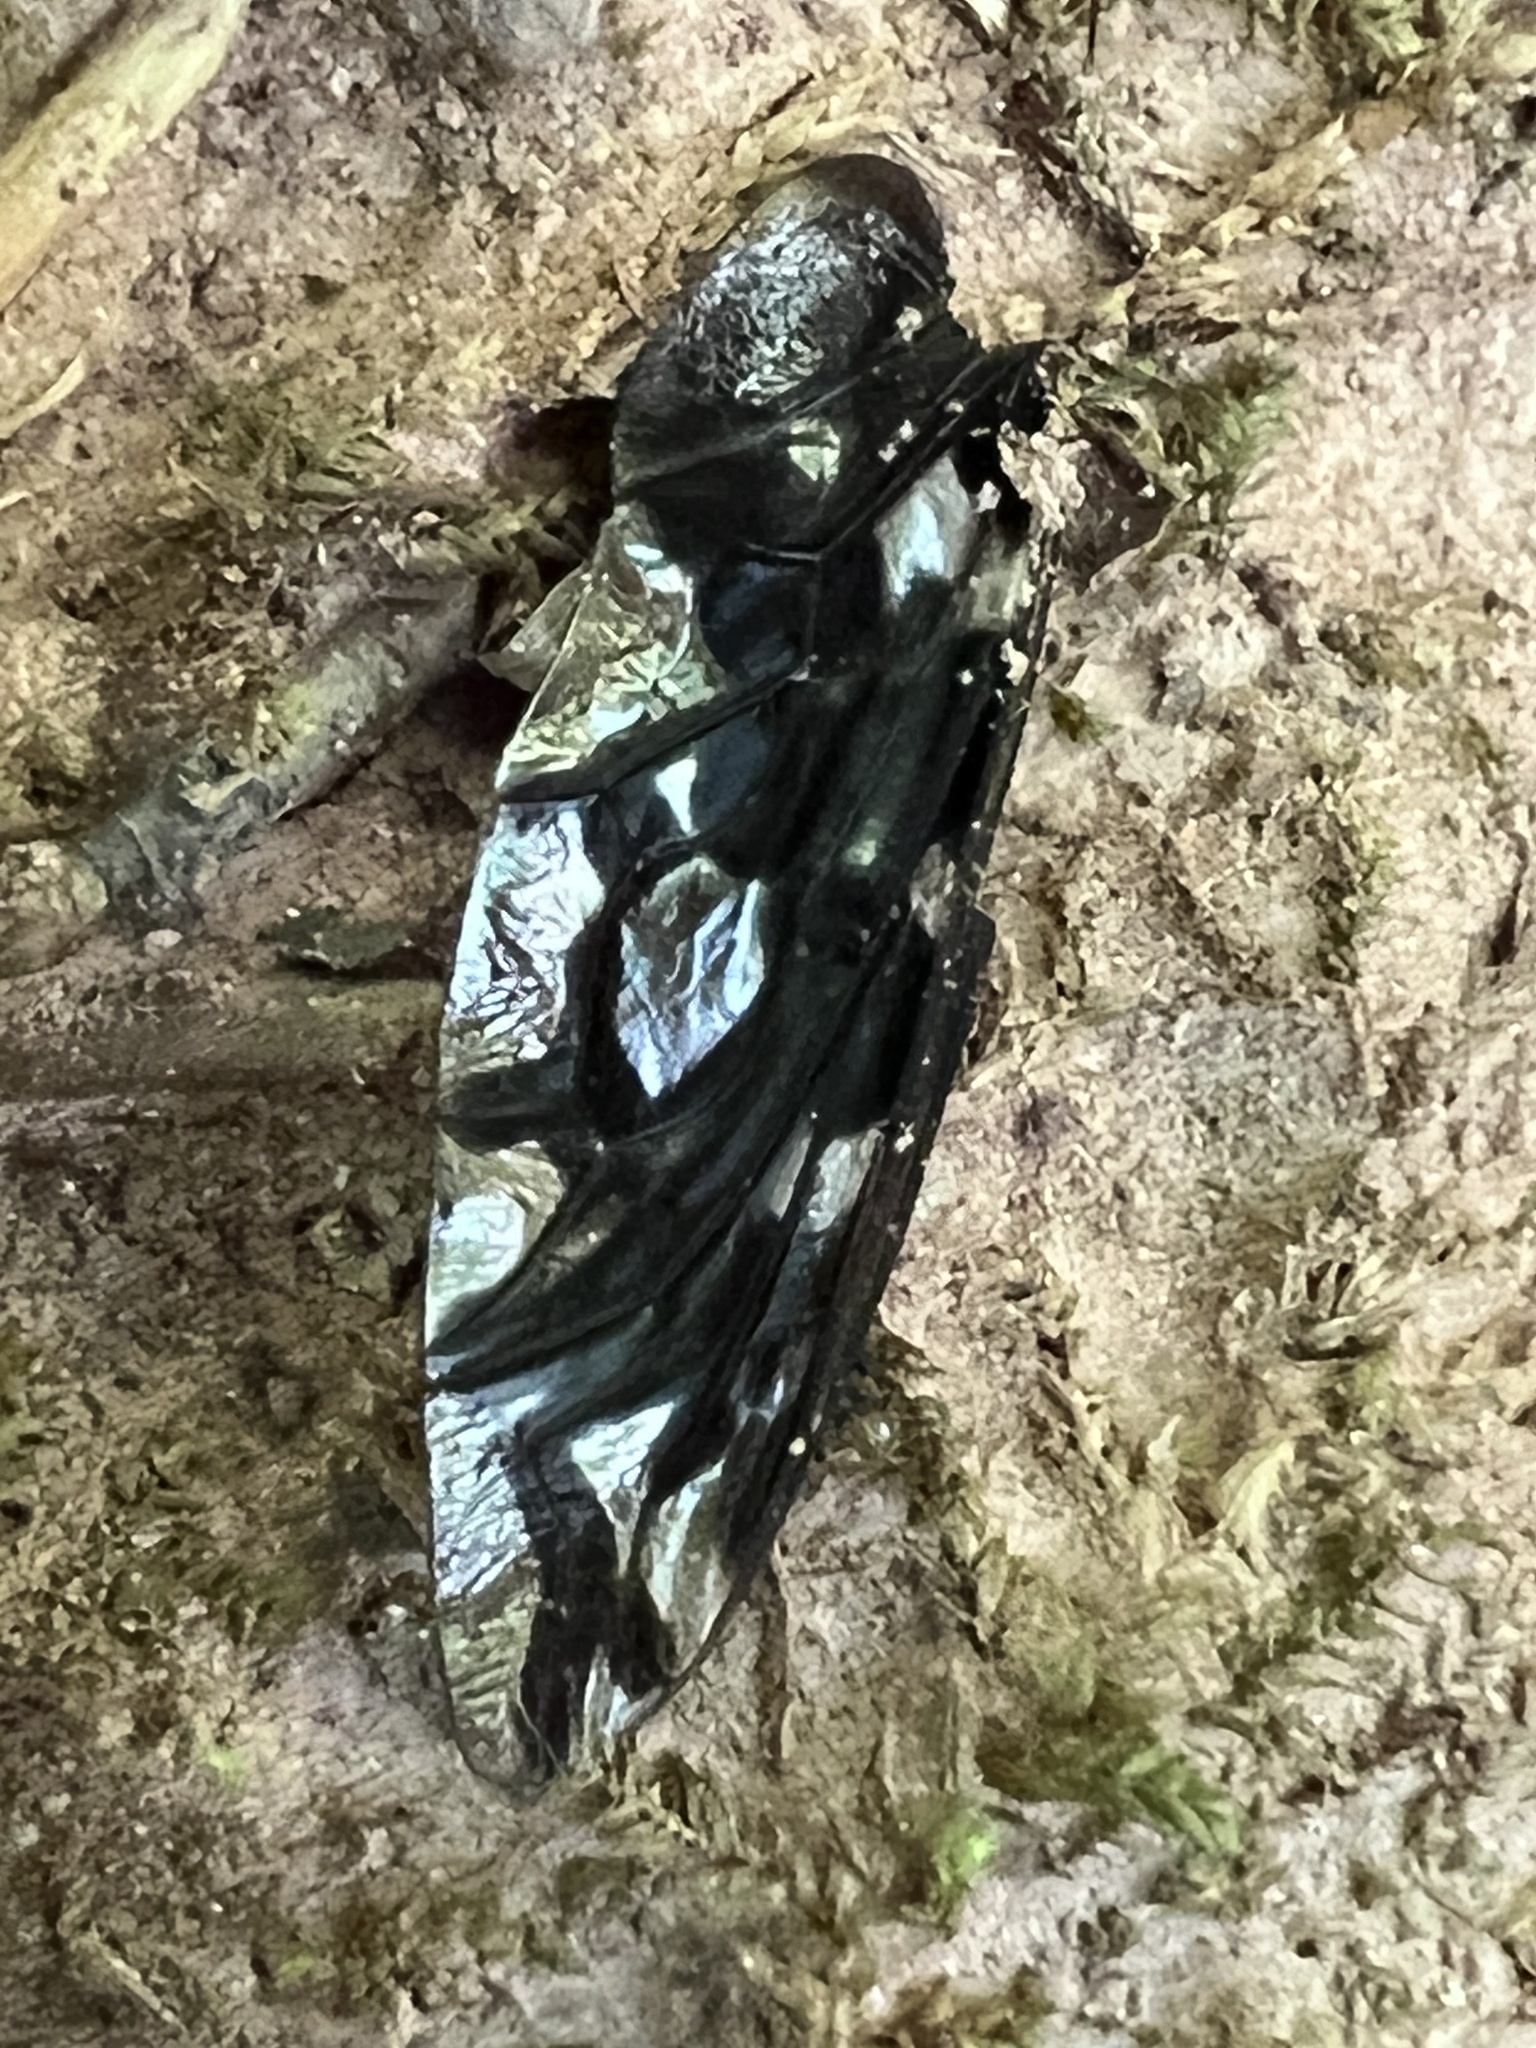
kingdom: Animalia
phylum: Arthropoda
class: Insecta
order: Diptera
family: Bombyliidae
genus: Xenox
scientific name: Xenox tigrinus
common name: Tiger bee fly
